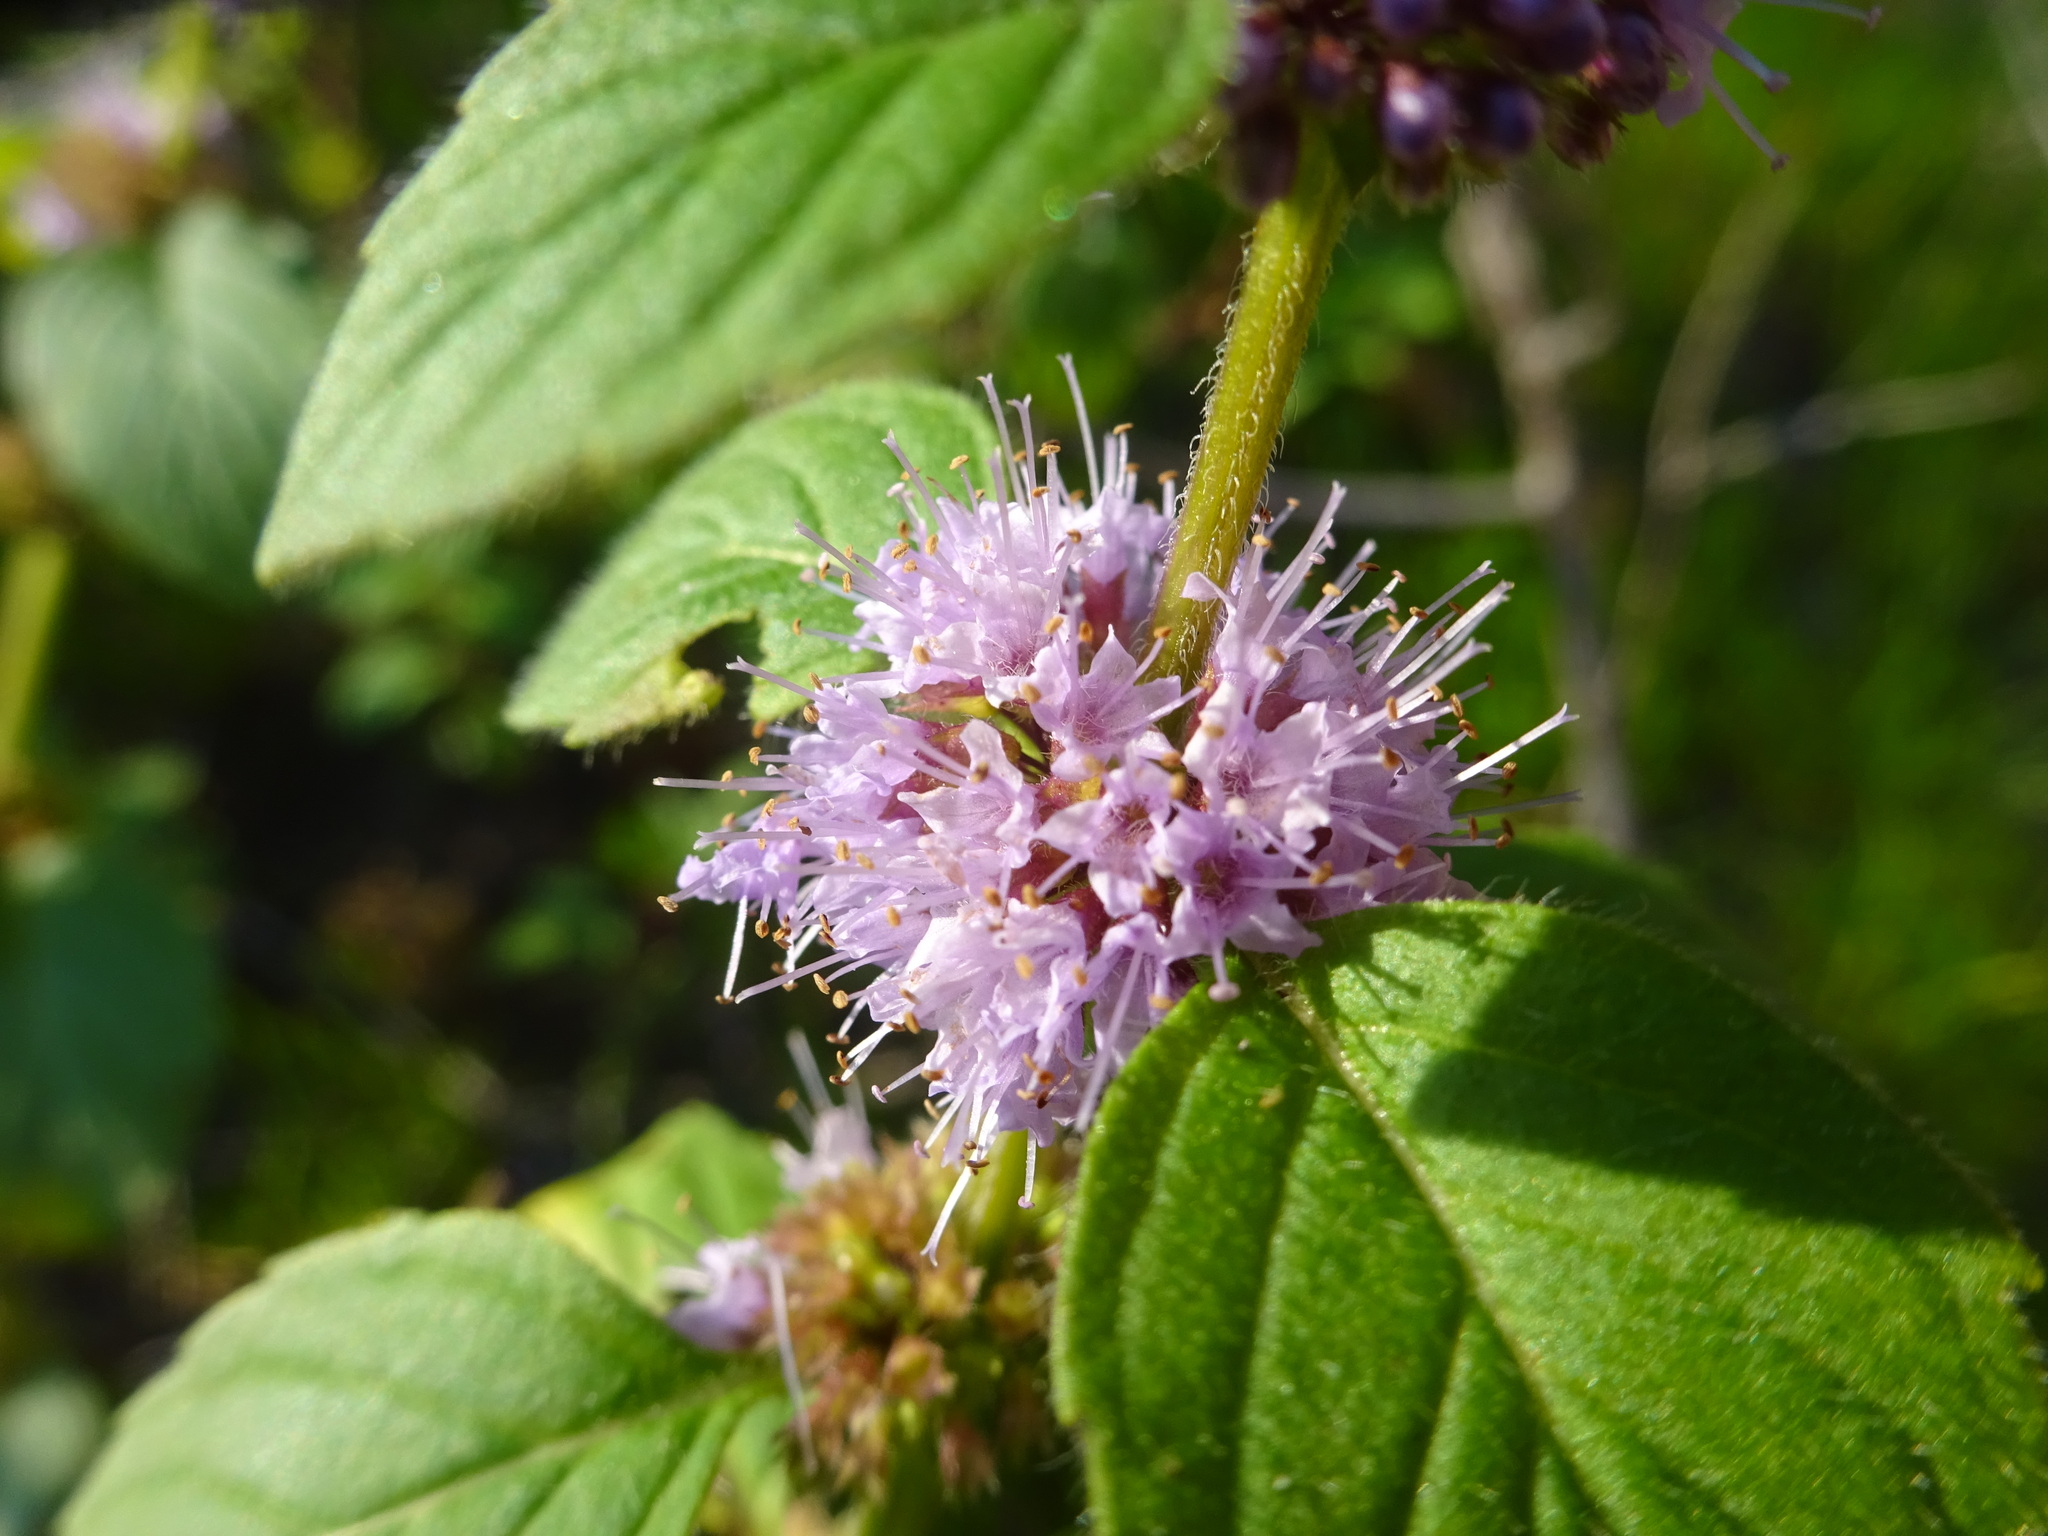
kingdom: Plantae
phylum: Tracheophyta
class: Magnoliopsida
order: Lamiales
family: Lamiaceae
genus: Mentha
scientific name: Mentha arvensis
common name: Corn mint
